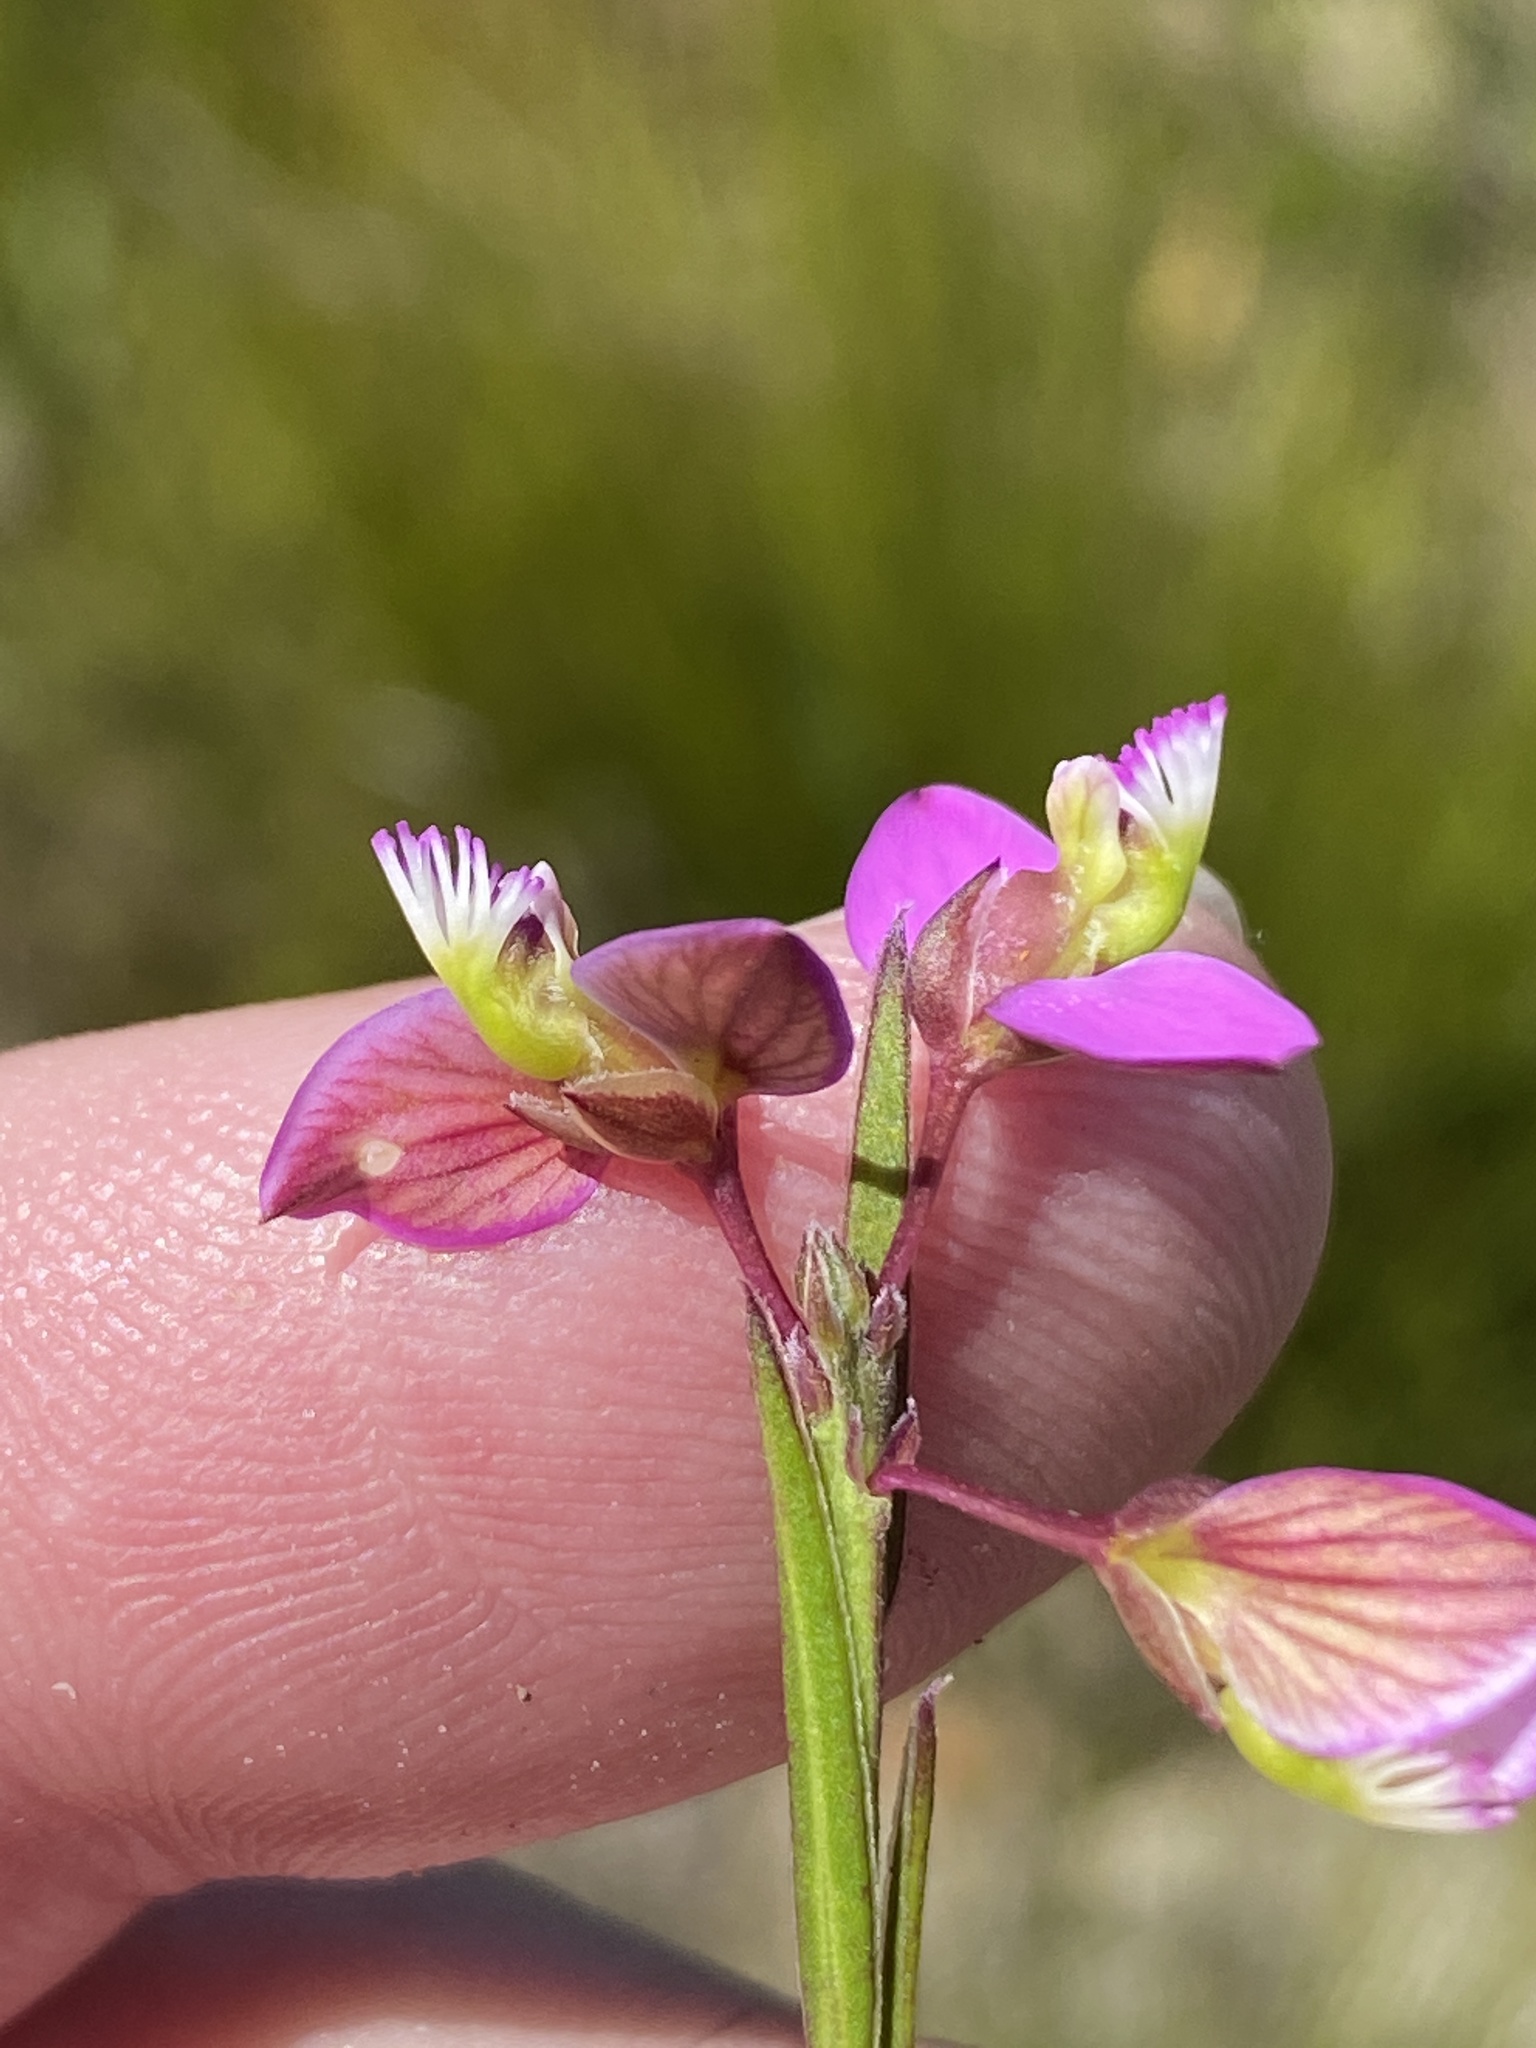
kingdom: Plantae
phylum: Tracheophyta
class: Magnoliopsida
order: Fabales
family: Polygalaceae
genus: Polygala
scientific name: Polygala triquetra
